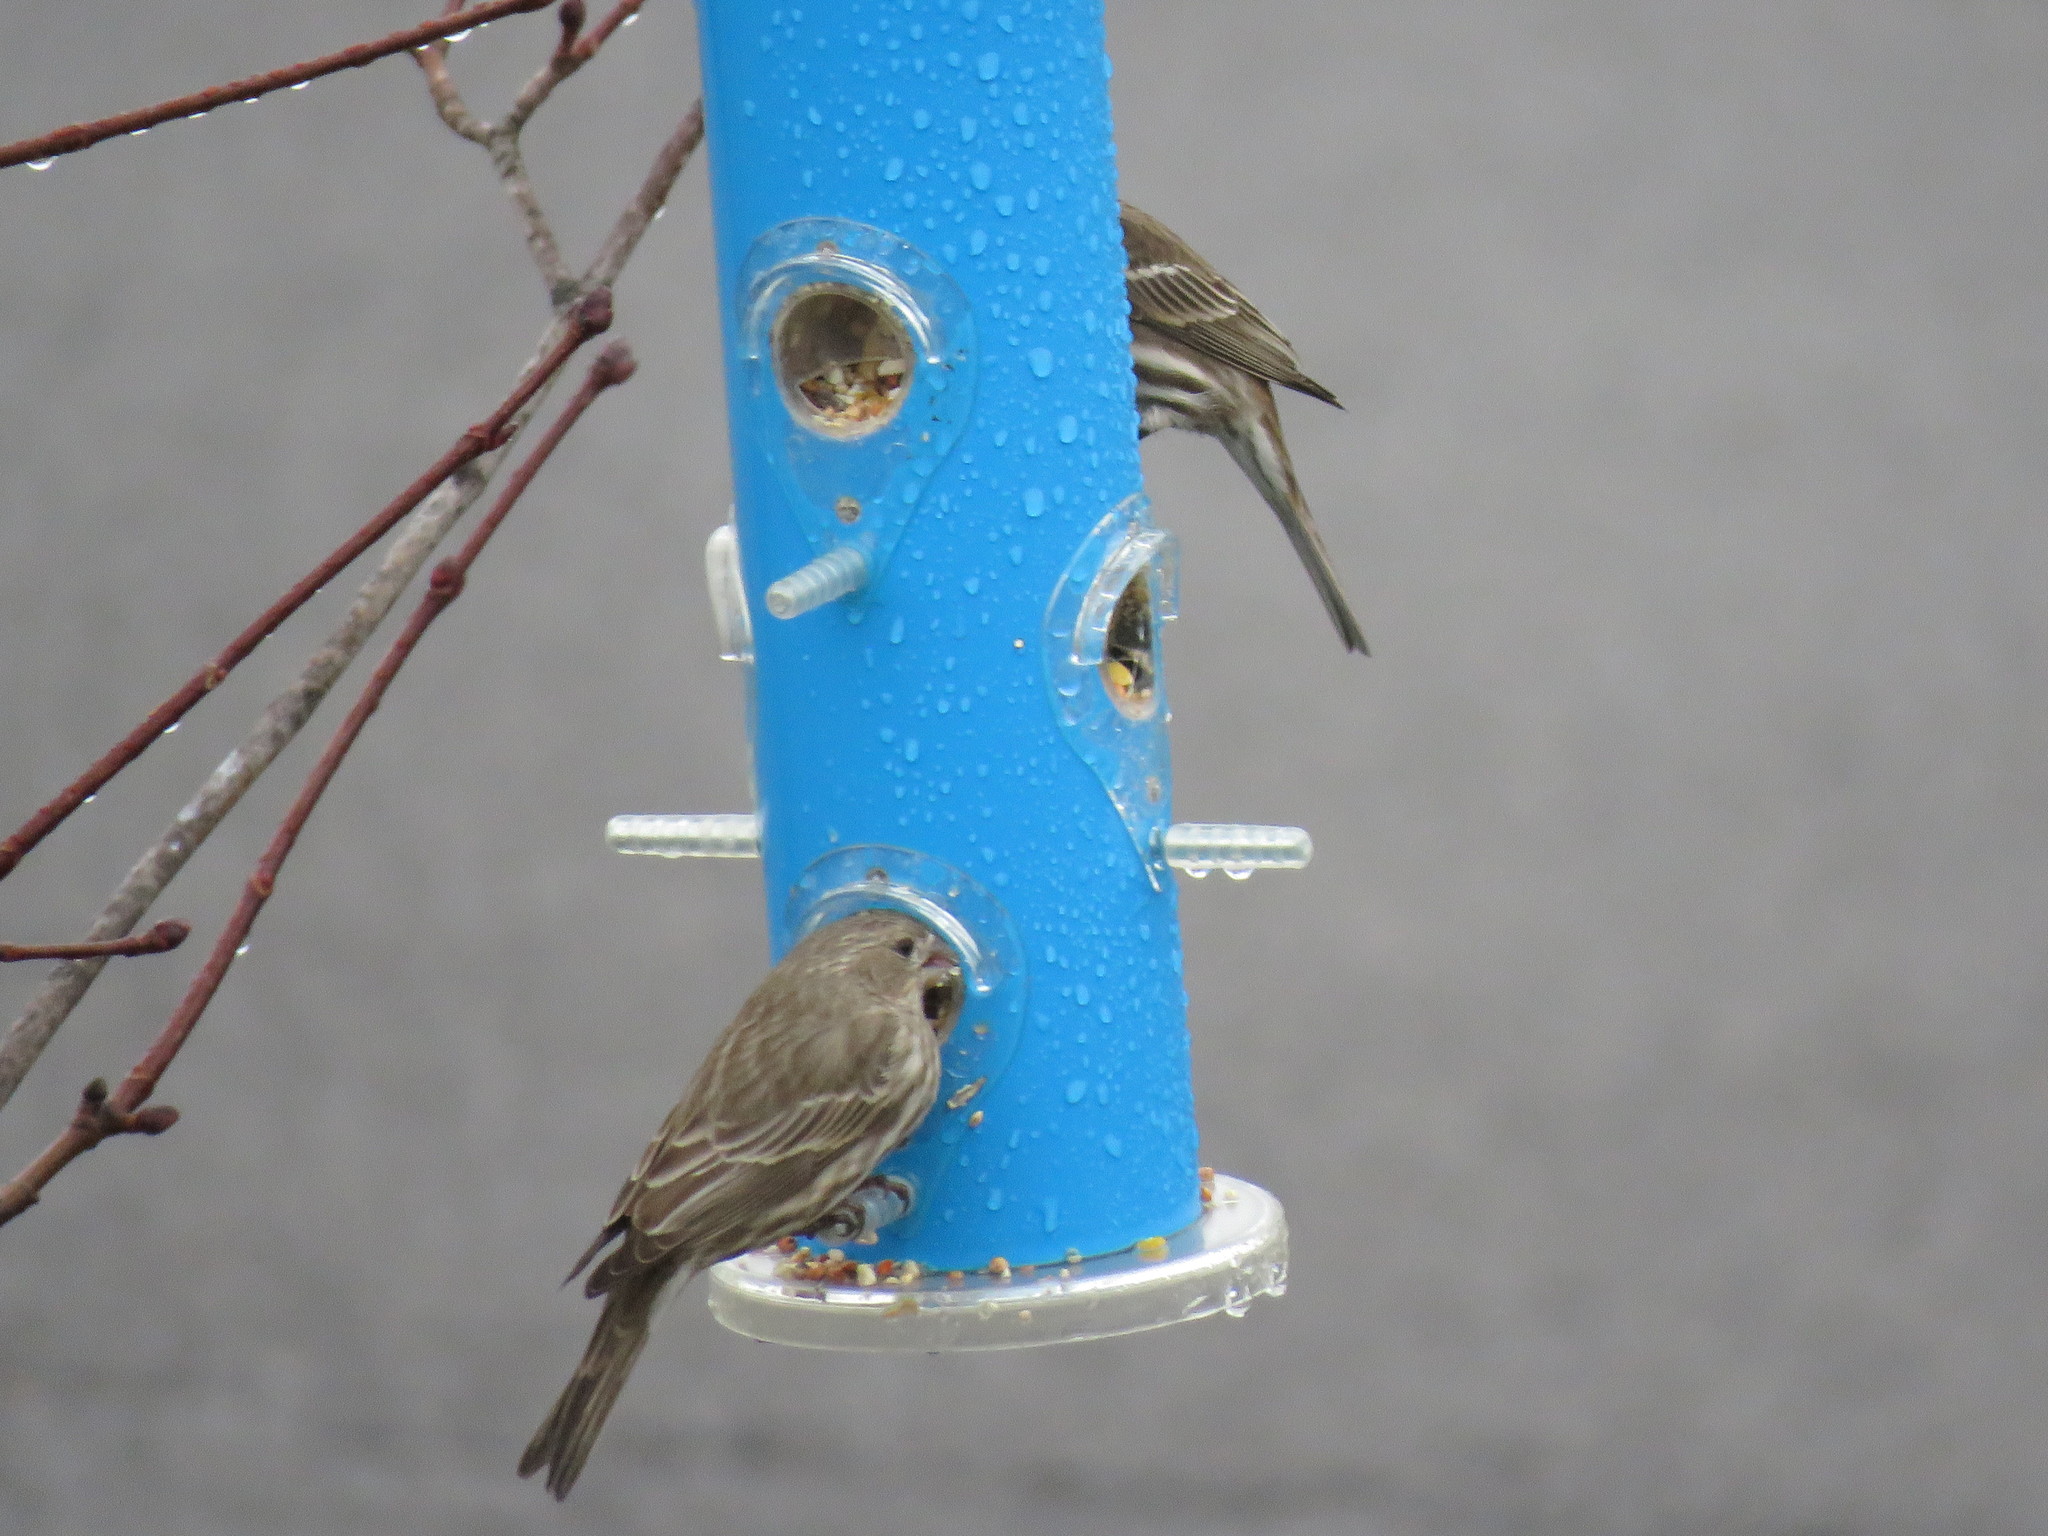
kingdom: Animalia
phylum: Chordata
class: Aves
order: Passeriformes
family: Fringillidae
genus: Haemorhous
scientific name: Haemorhous mexicanus
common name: House finch
